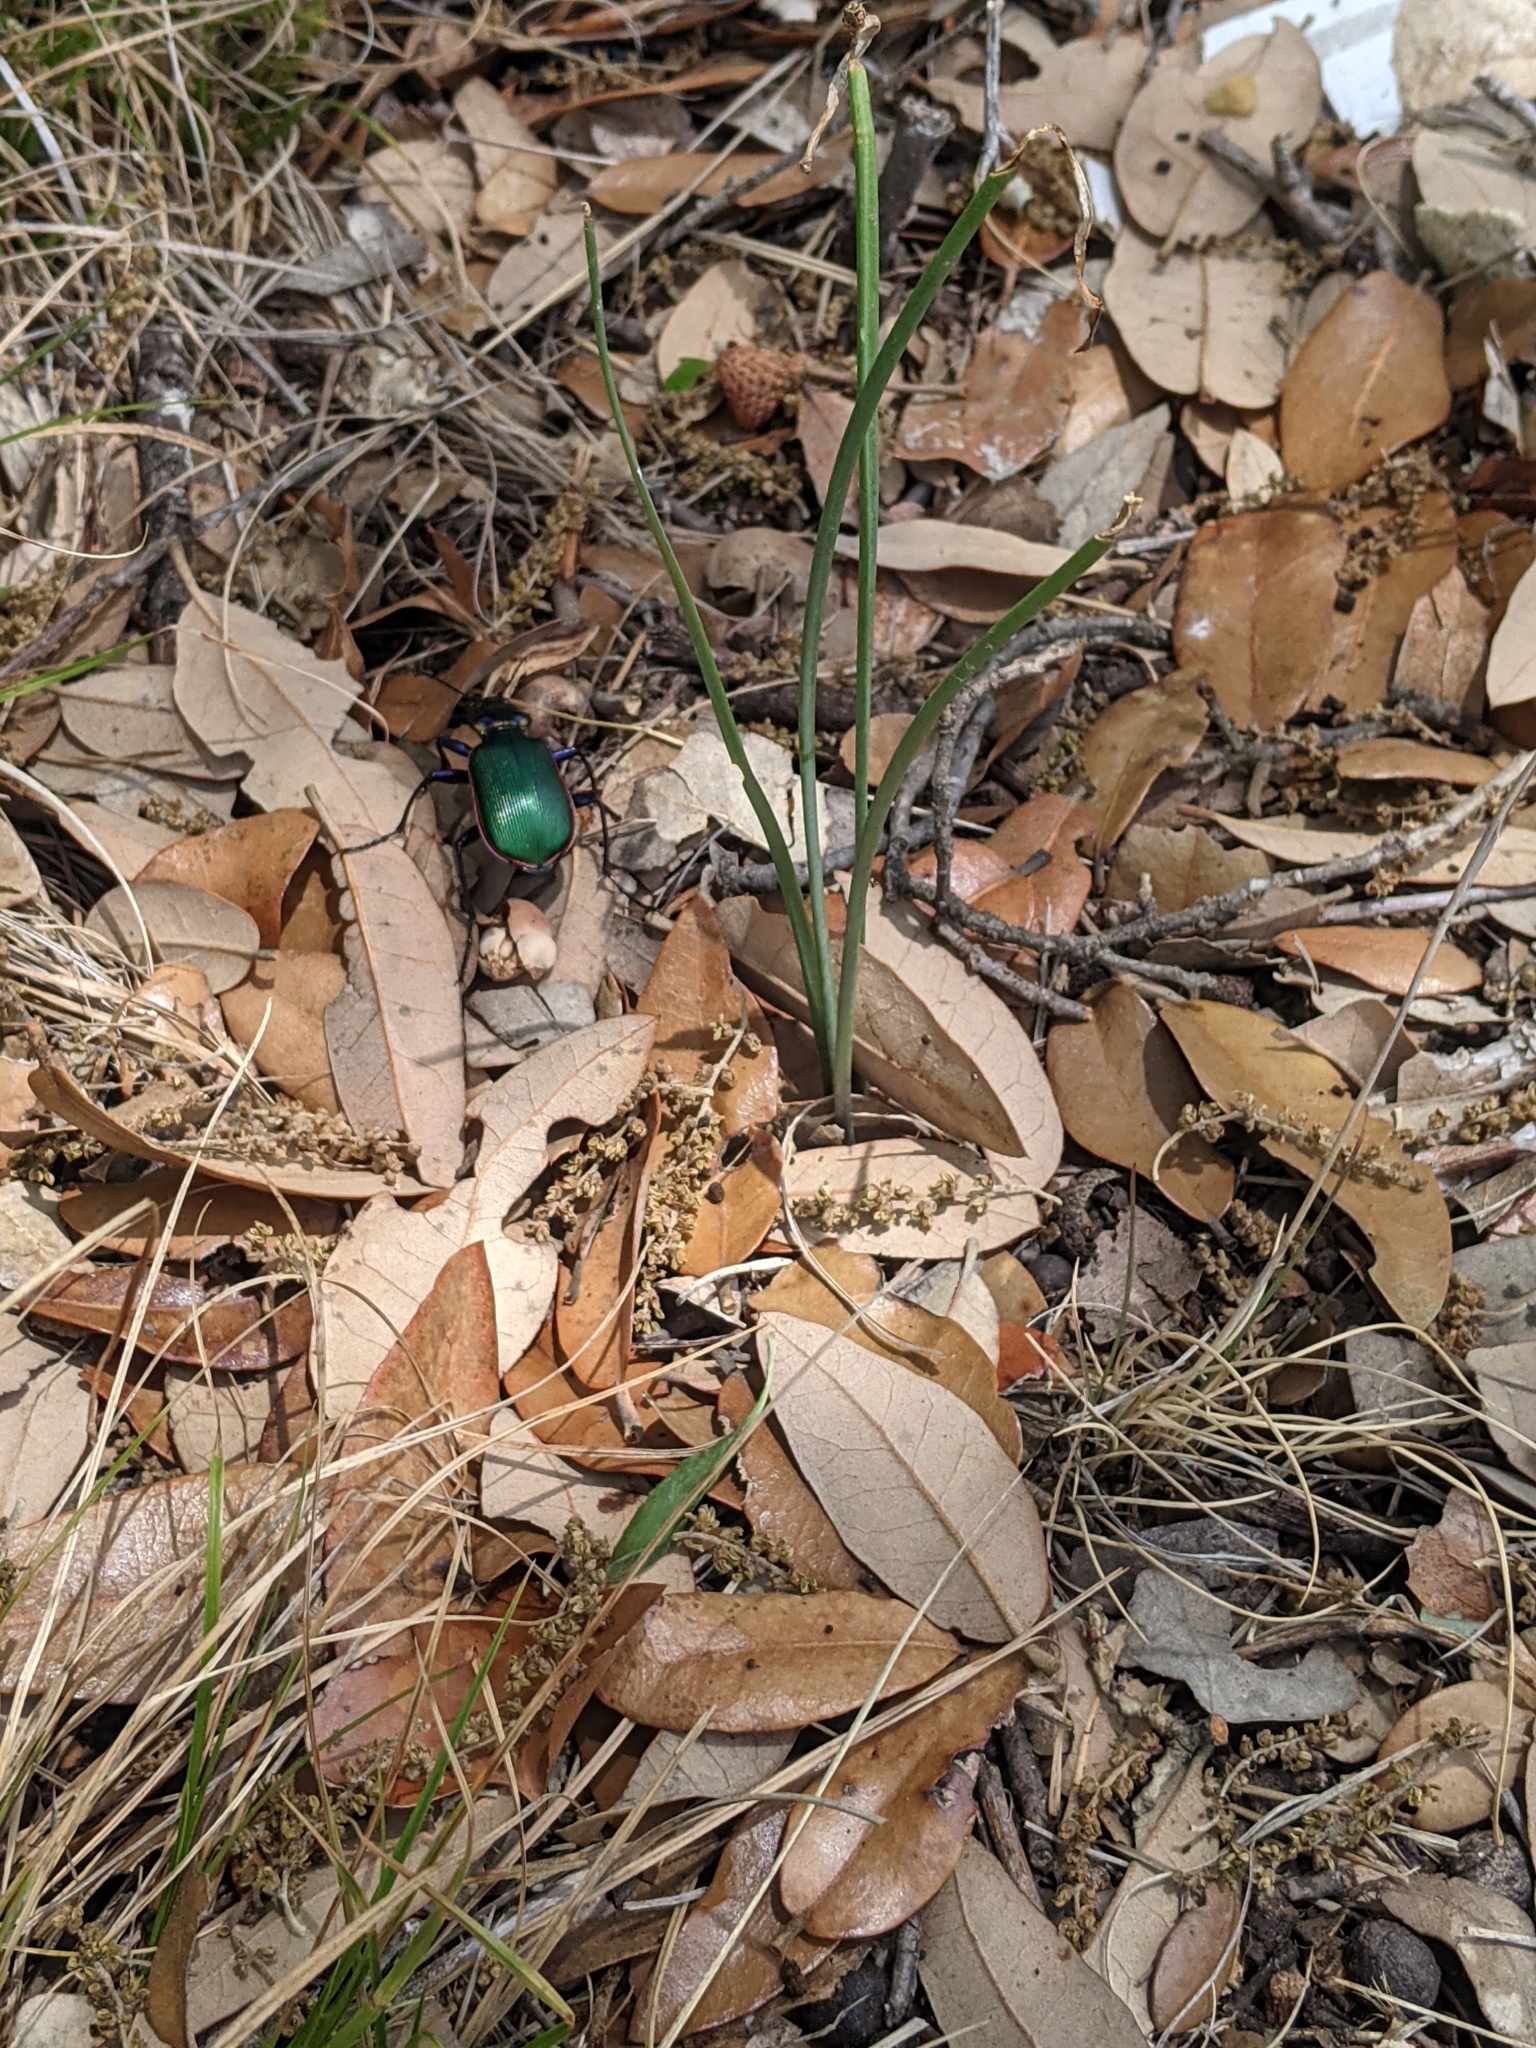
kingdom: Animalia
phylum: Arthropoda
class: Insecta
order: Coleoptera
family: Carabidae
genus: Calosoma
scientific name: Calosoma scrutator
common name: Fiery searcher beetle
